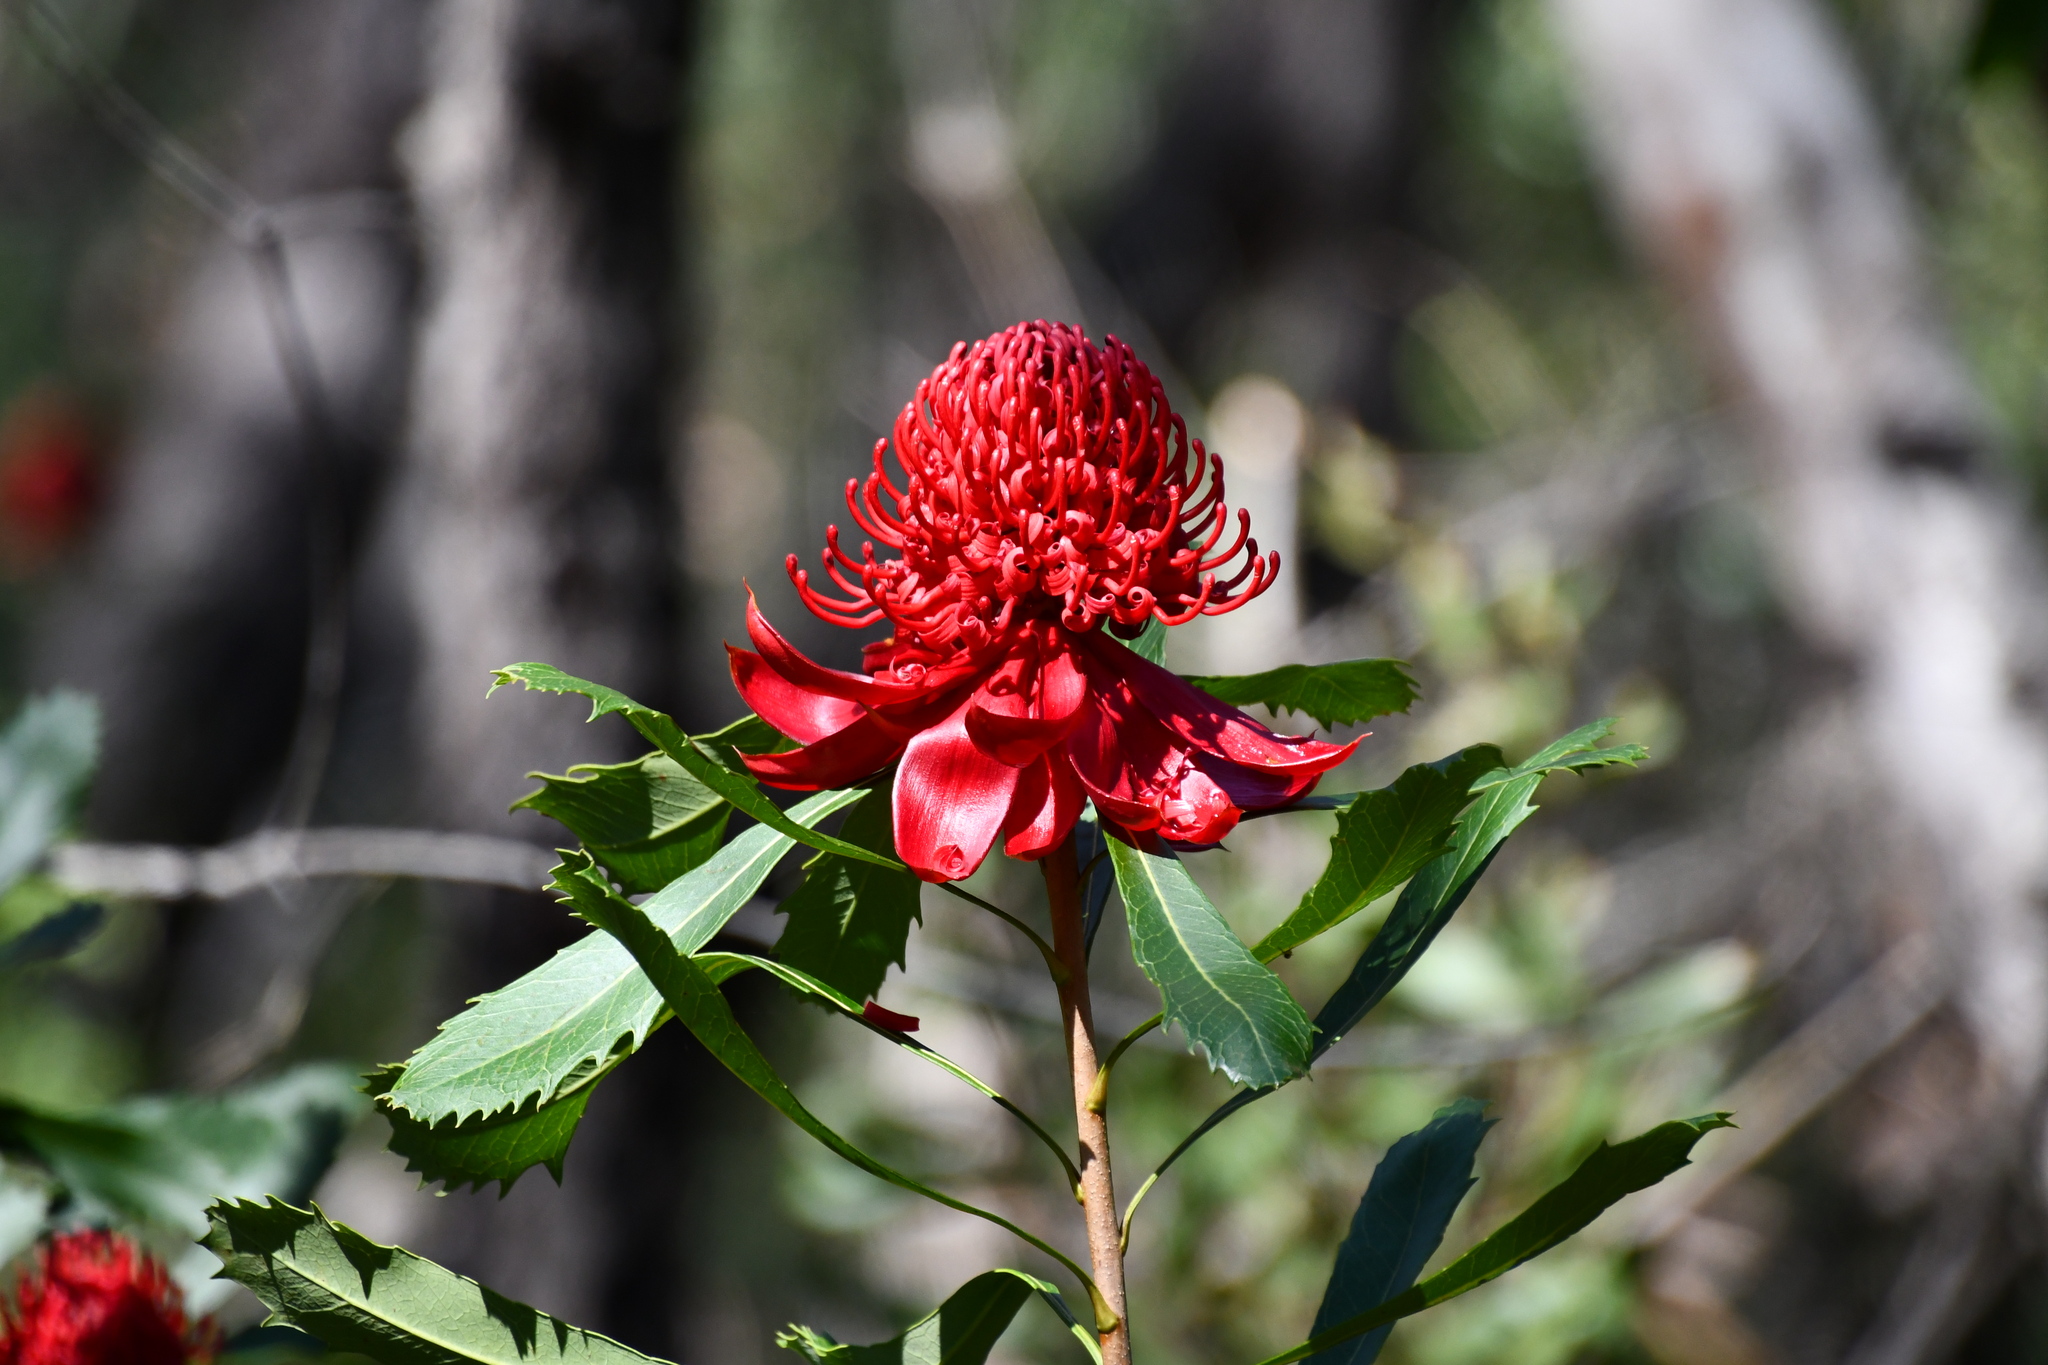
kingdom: Plantae
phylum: Tracheophyta
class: Magnoliopsida
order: Proteales
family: Proteaceae
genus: Telopea
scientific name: Telopea speciosissima
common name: New south wales waratah
